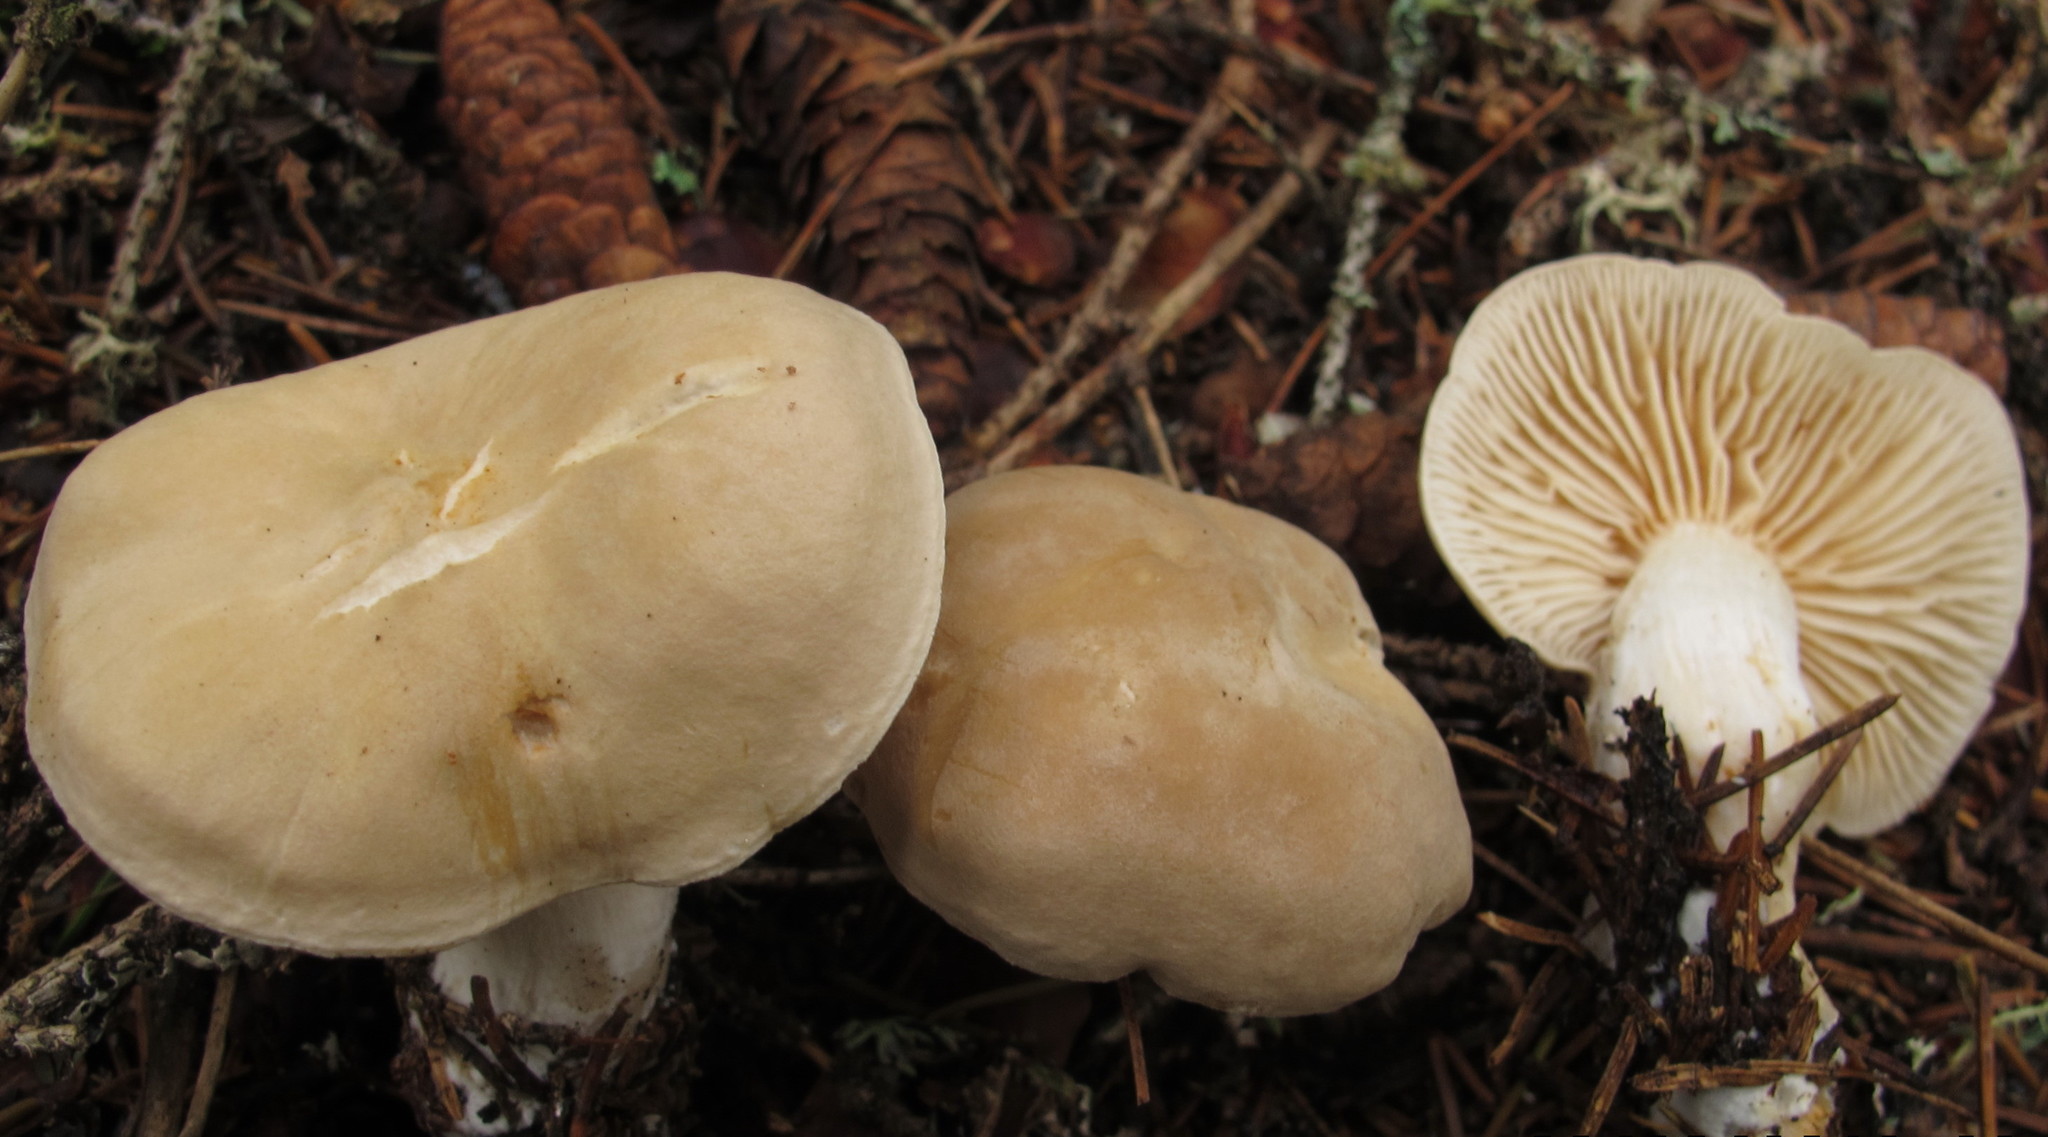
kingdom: Fungi
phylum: Basidiomycota
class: Agaricomycetes
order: Agaricales
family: Tricholomataceae
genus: Tricholoma
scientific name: Tricholoma inamoenum
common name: Gassy knight
